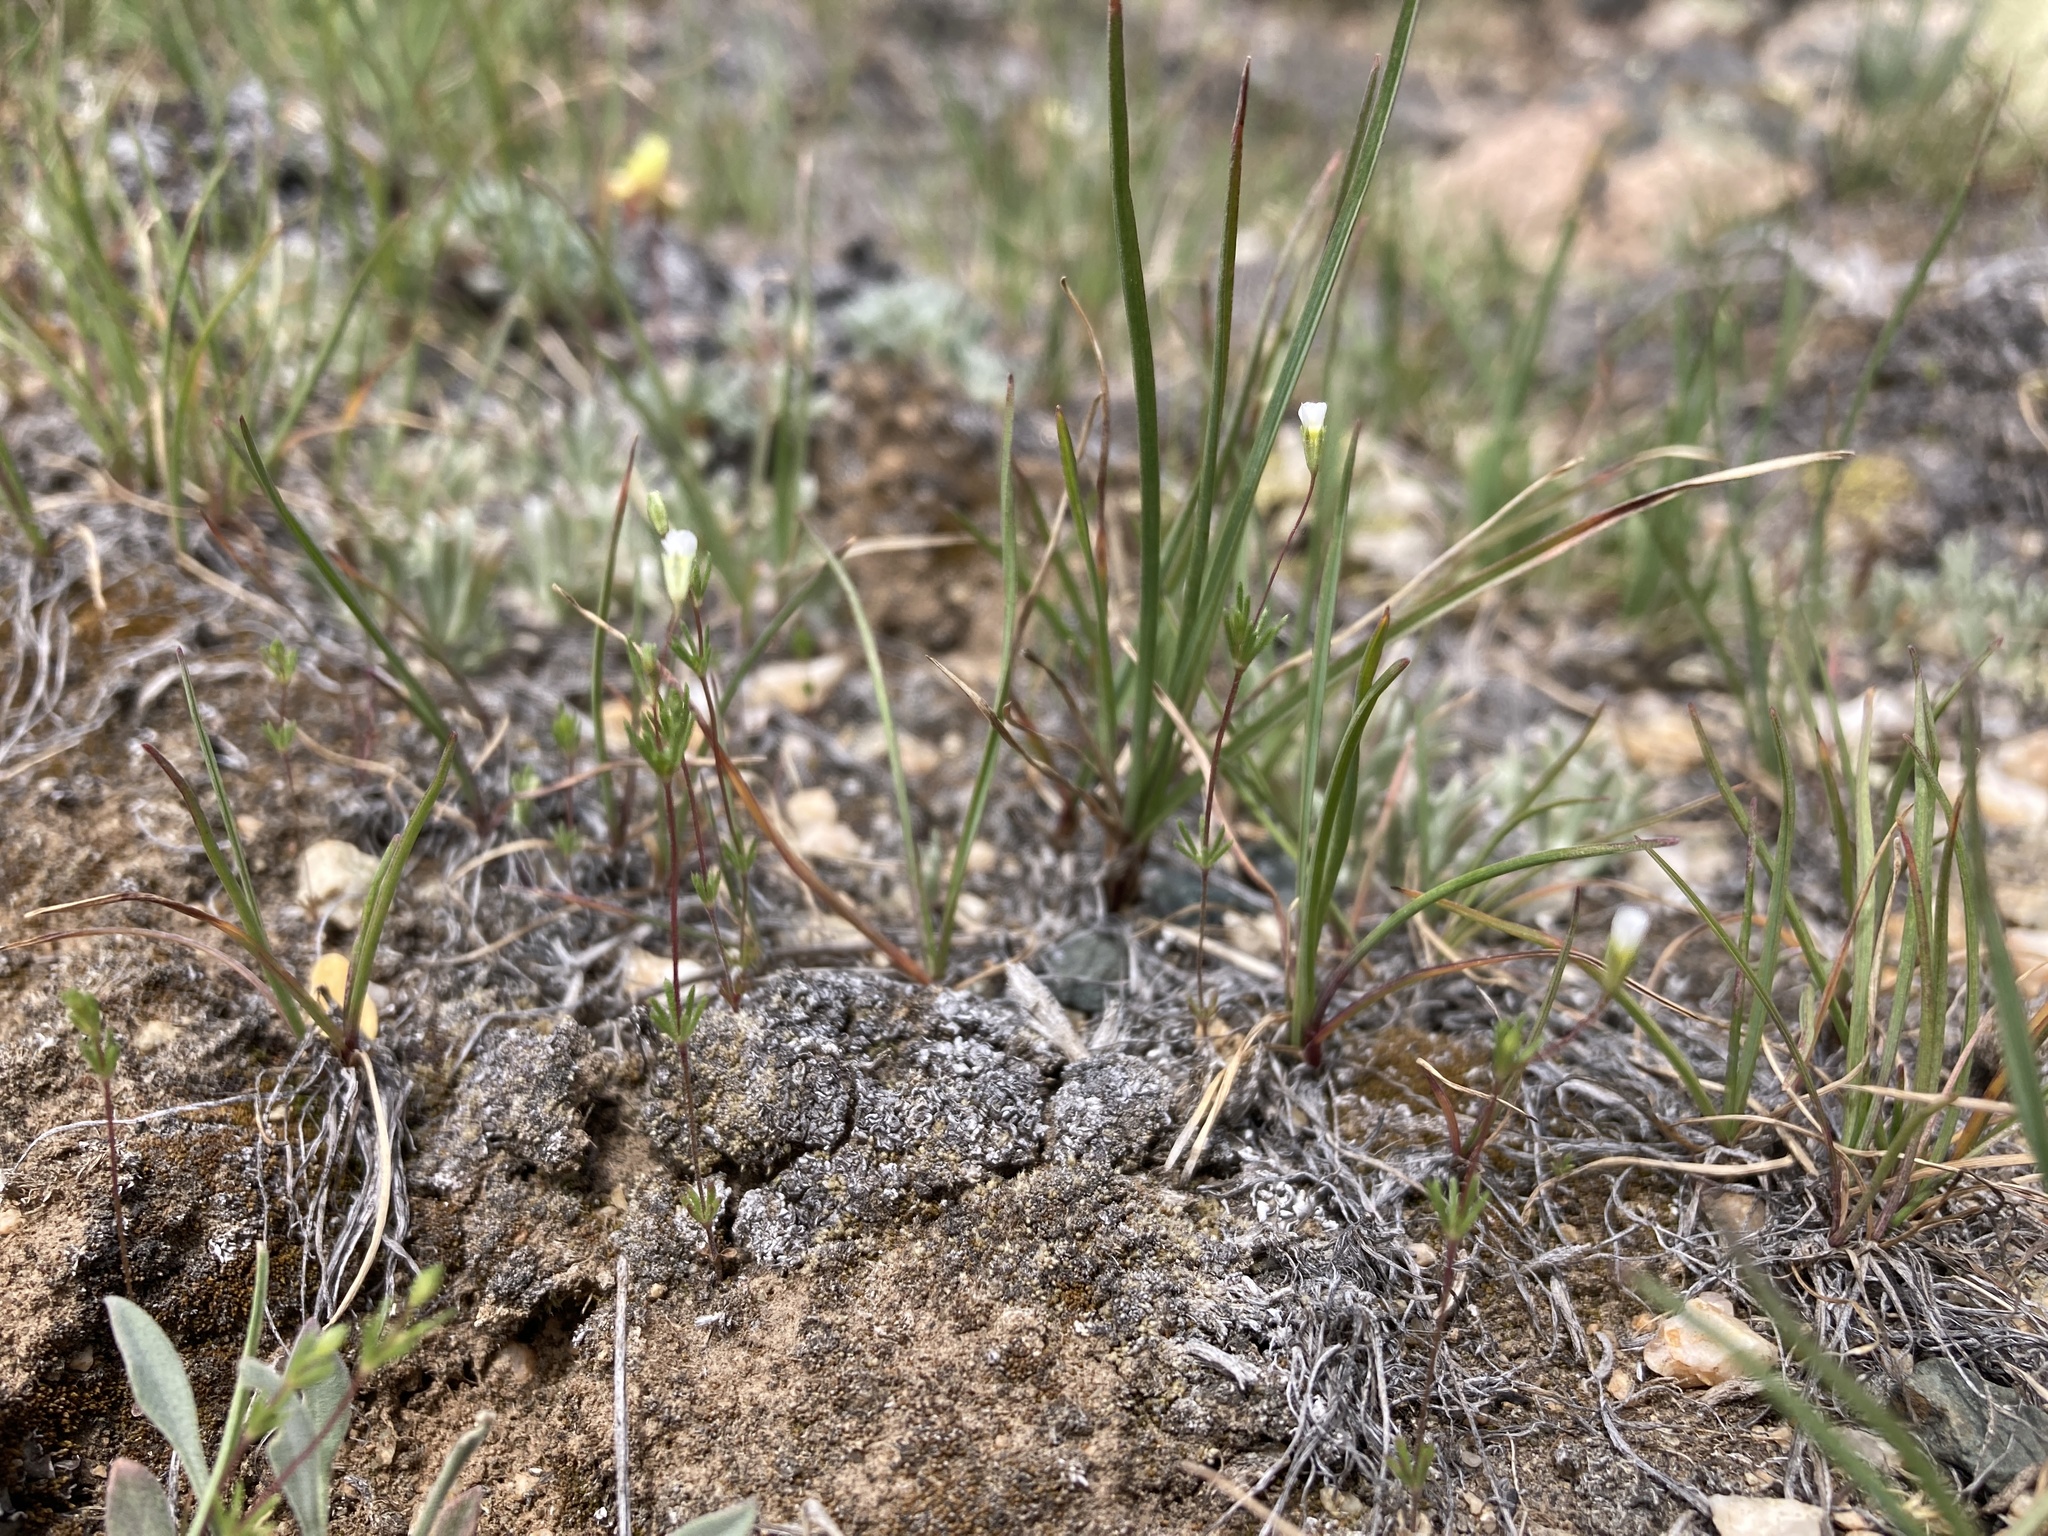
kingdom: Plantae
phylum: Tracheophyta
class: Magnoliopsida
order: Ericales
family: Polemoniaceae
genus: Leptosiphon
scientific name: Leptosiphon septentrionalis
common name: Northern linanthus
